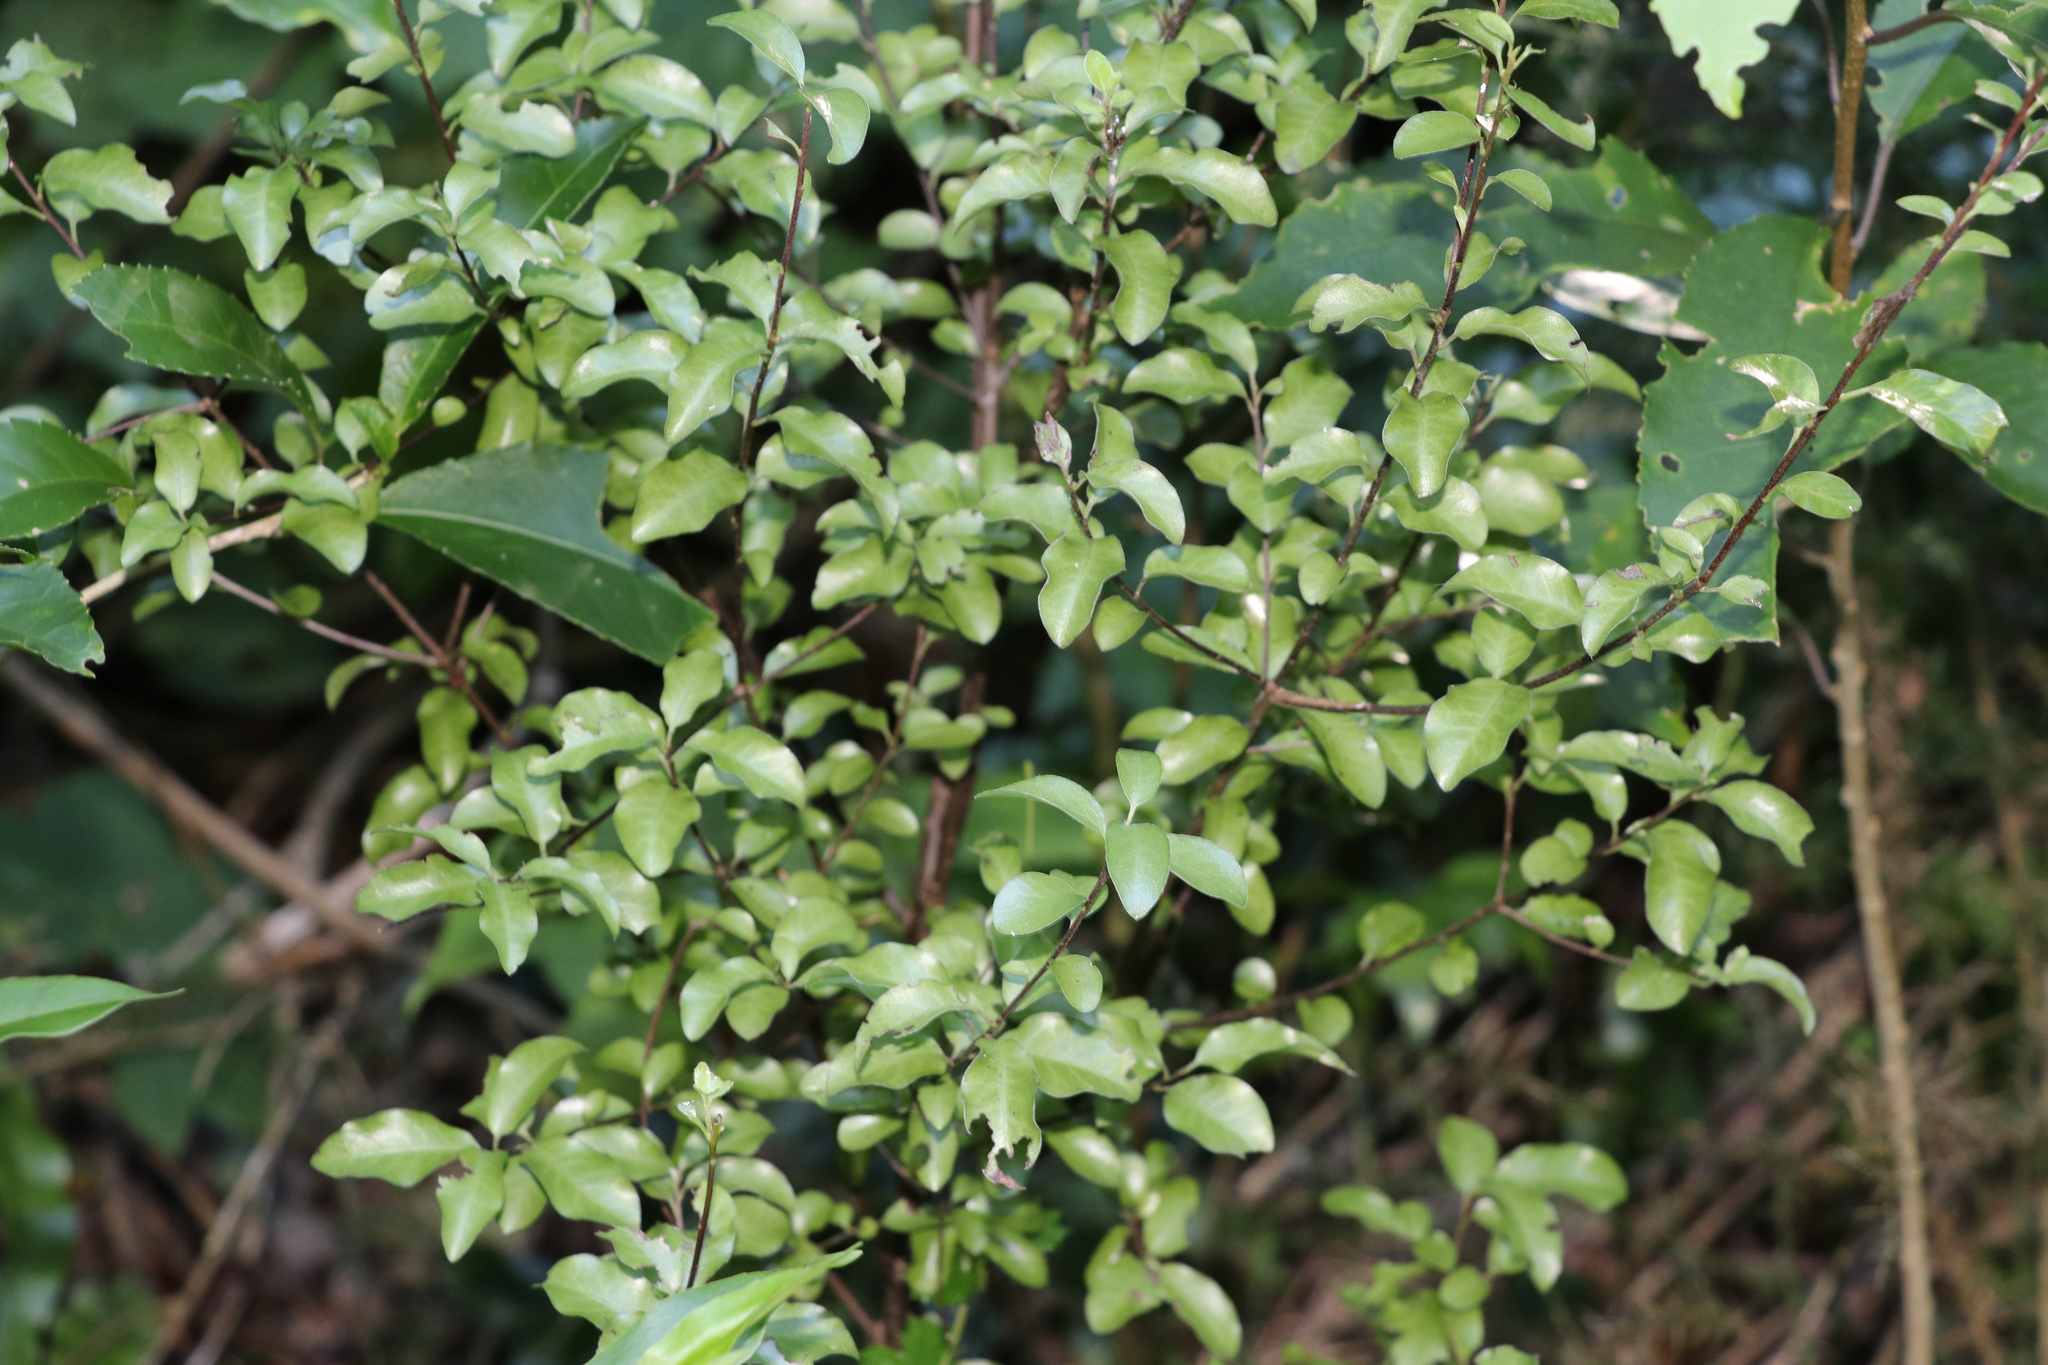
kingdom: Plantae
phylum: Tracheophyta
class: Magnoliopsida
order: Apiales
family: Pittosporaceae
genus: Pittosporum
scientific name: Pittosporum tenuifolium
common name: Kohuhu
